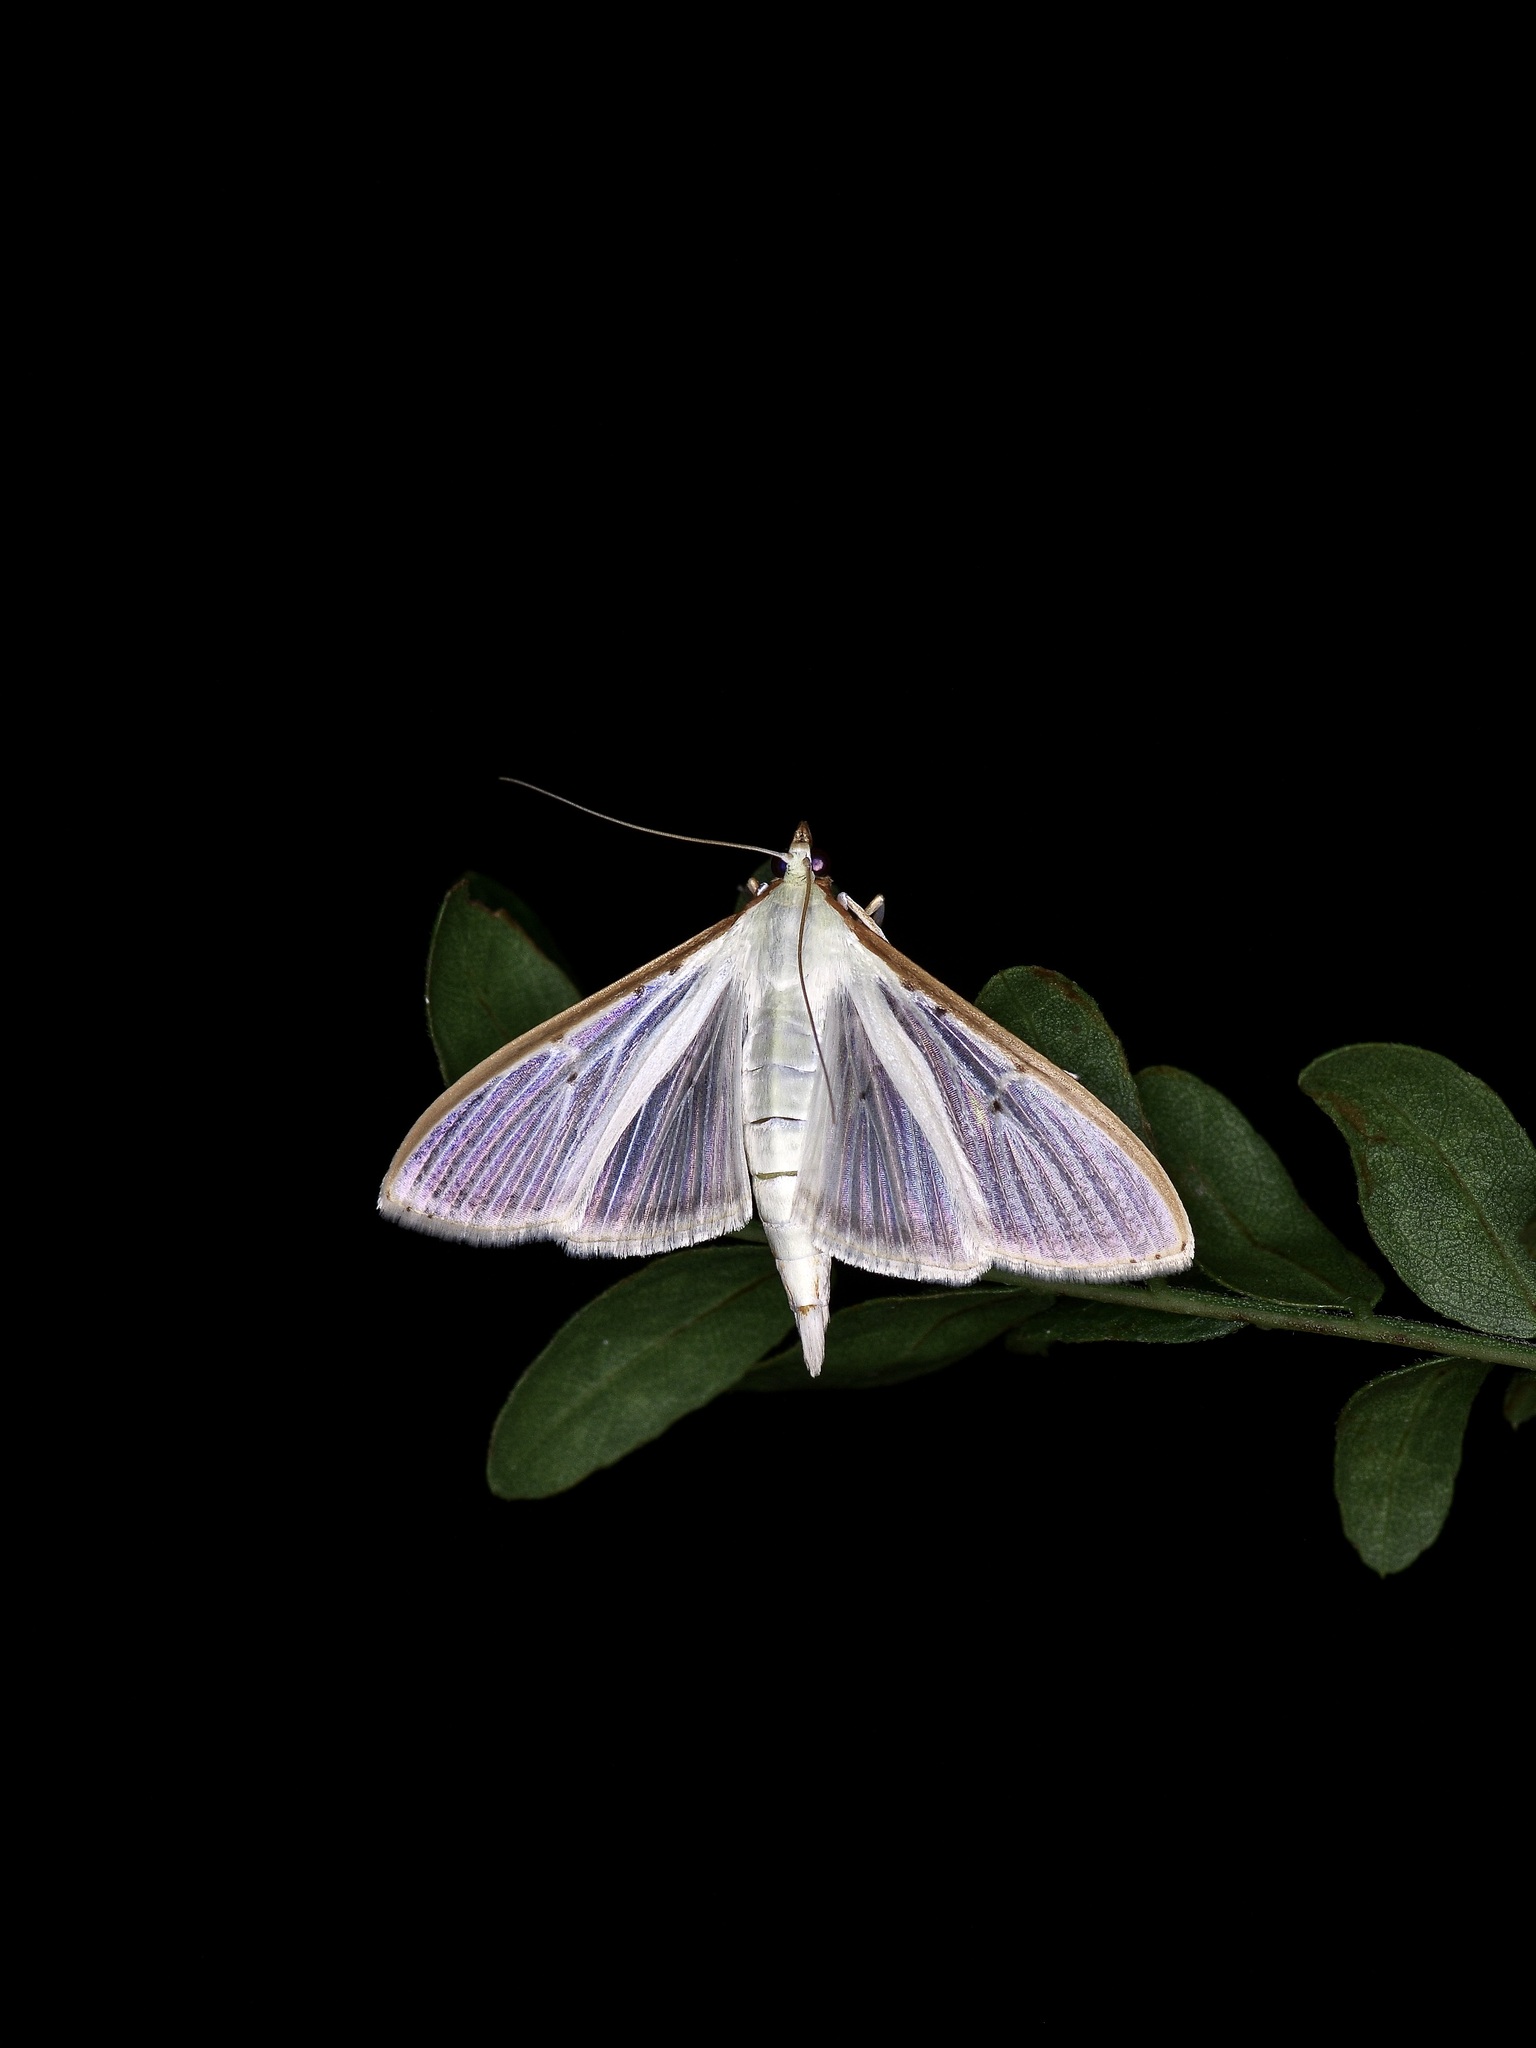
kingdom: Animalia
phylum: Arthropoda
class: Insecta
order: Lepidoptera
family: Crambidae
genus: Palpita
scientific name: Palpita quadristigmalis
